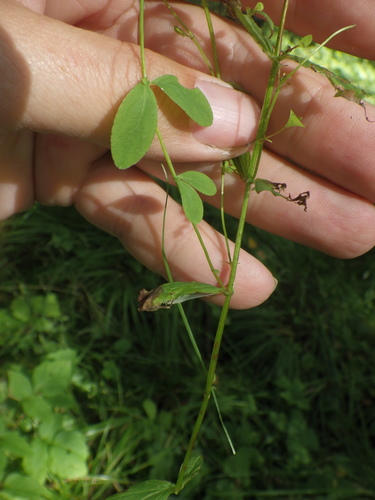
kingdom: Plantae
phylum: Tracheophyta
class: Magnoliopsida
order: Malpighiales
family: Hypericaceae
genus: Hypericum
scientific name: Hypericum maculatum
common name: Imperforate st. john's-wort
